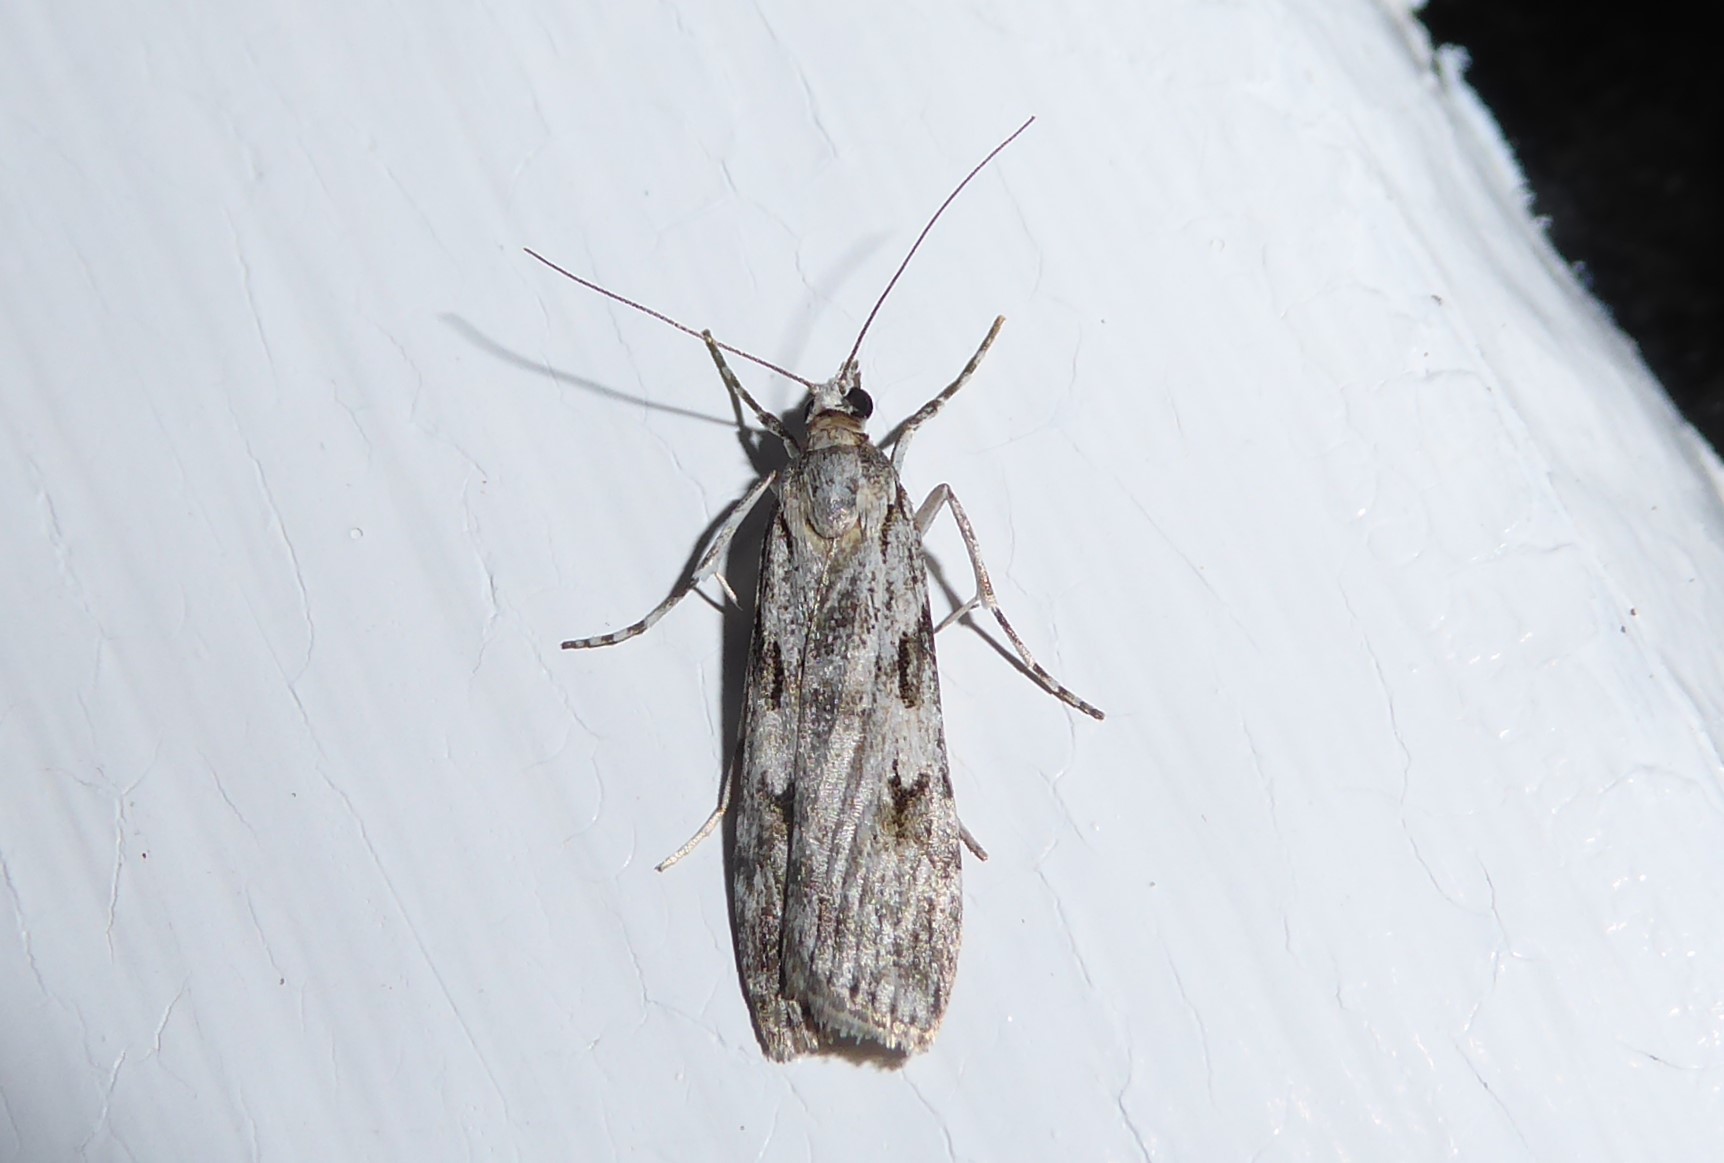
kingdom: Animalia
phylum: Arthropoda
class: Insecta
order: Lepidoptera
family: Crambidae
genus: Scoparia
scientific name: Scoparia halopis
